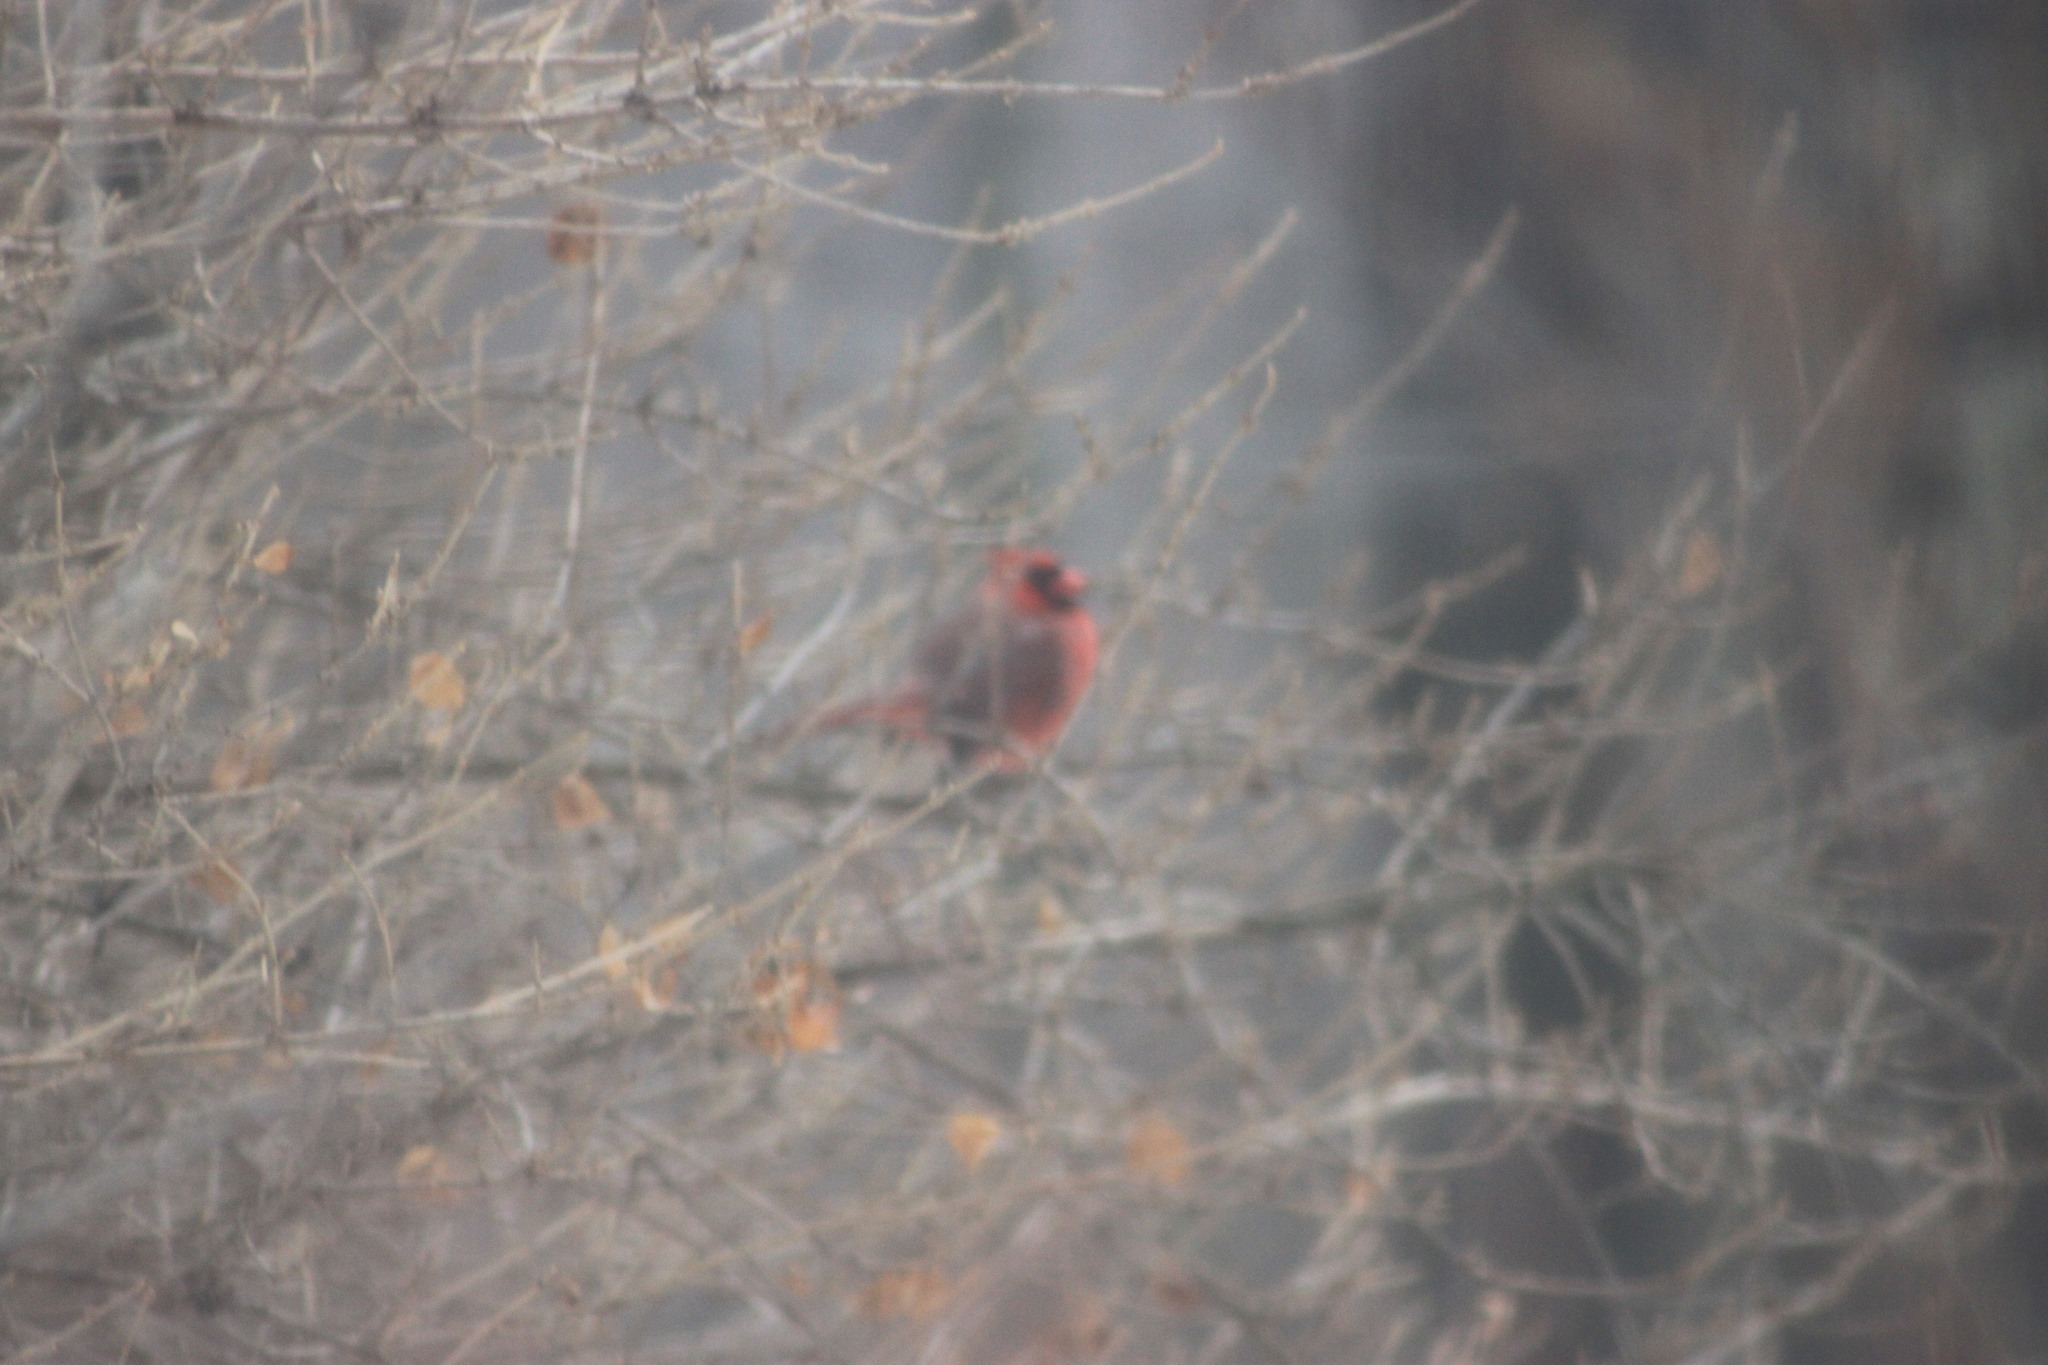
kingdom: Animalia
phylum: Chordata
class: Aves
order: Passeriformes
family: Cardinalidae
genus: Cardinalis
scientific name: Cardinalis cardinalis
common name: Northern cardinal
